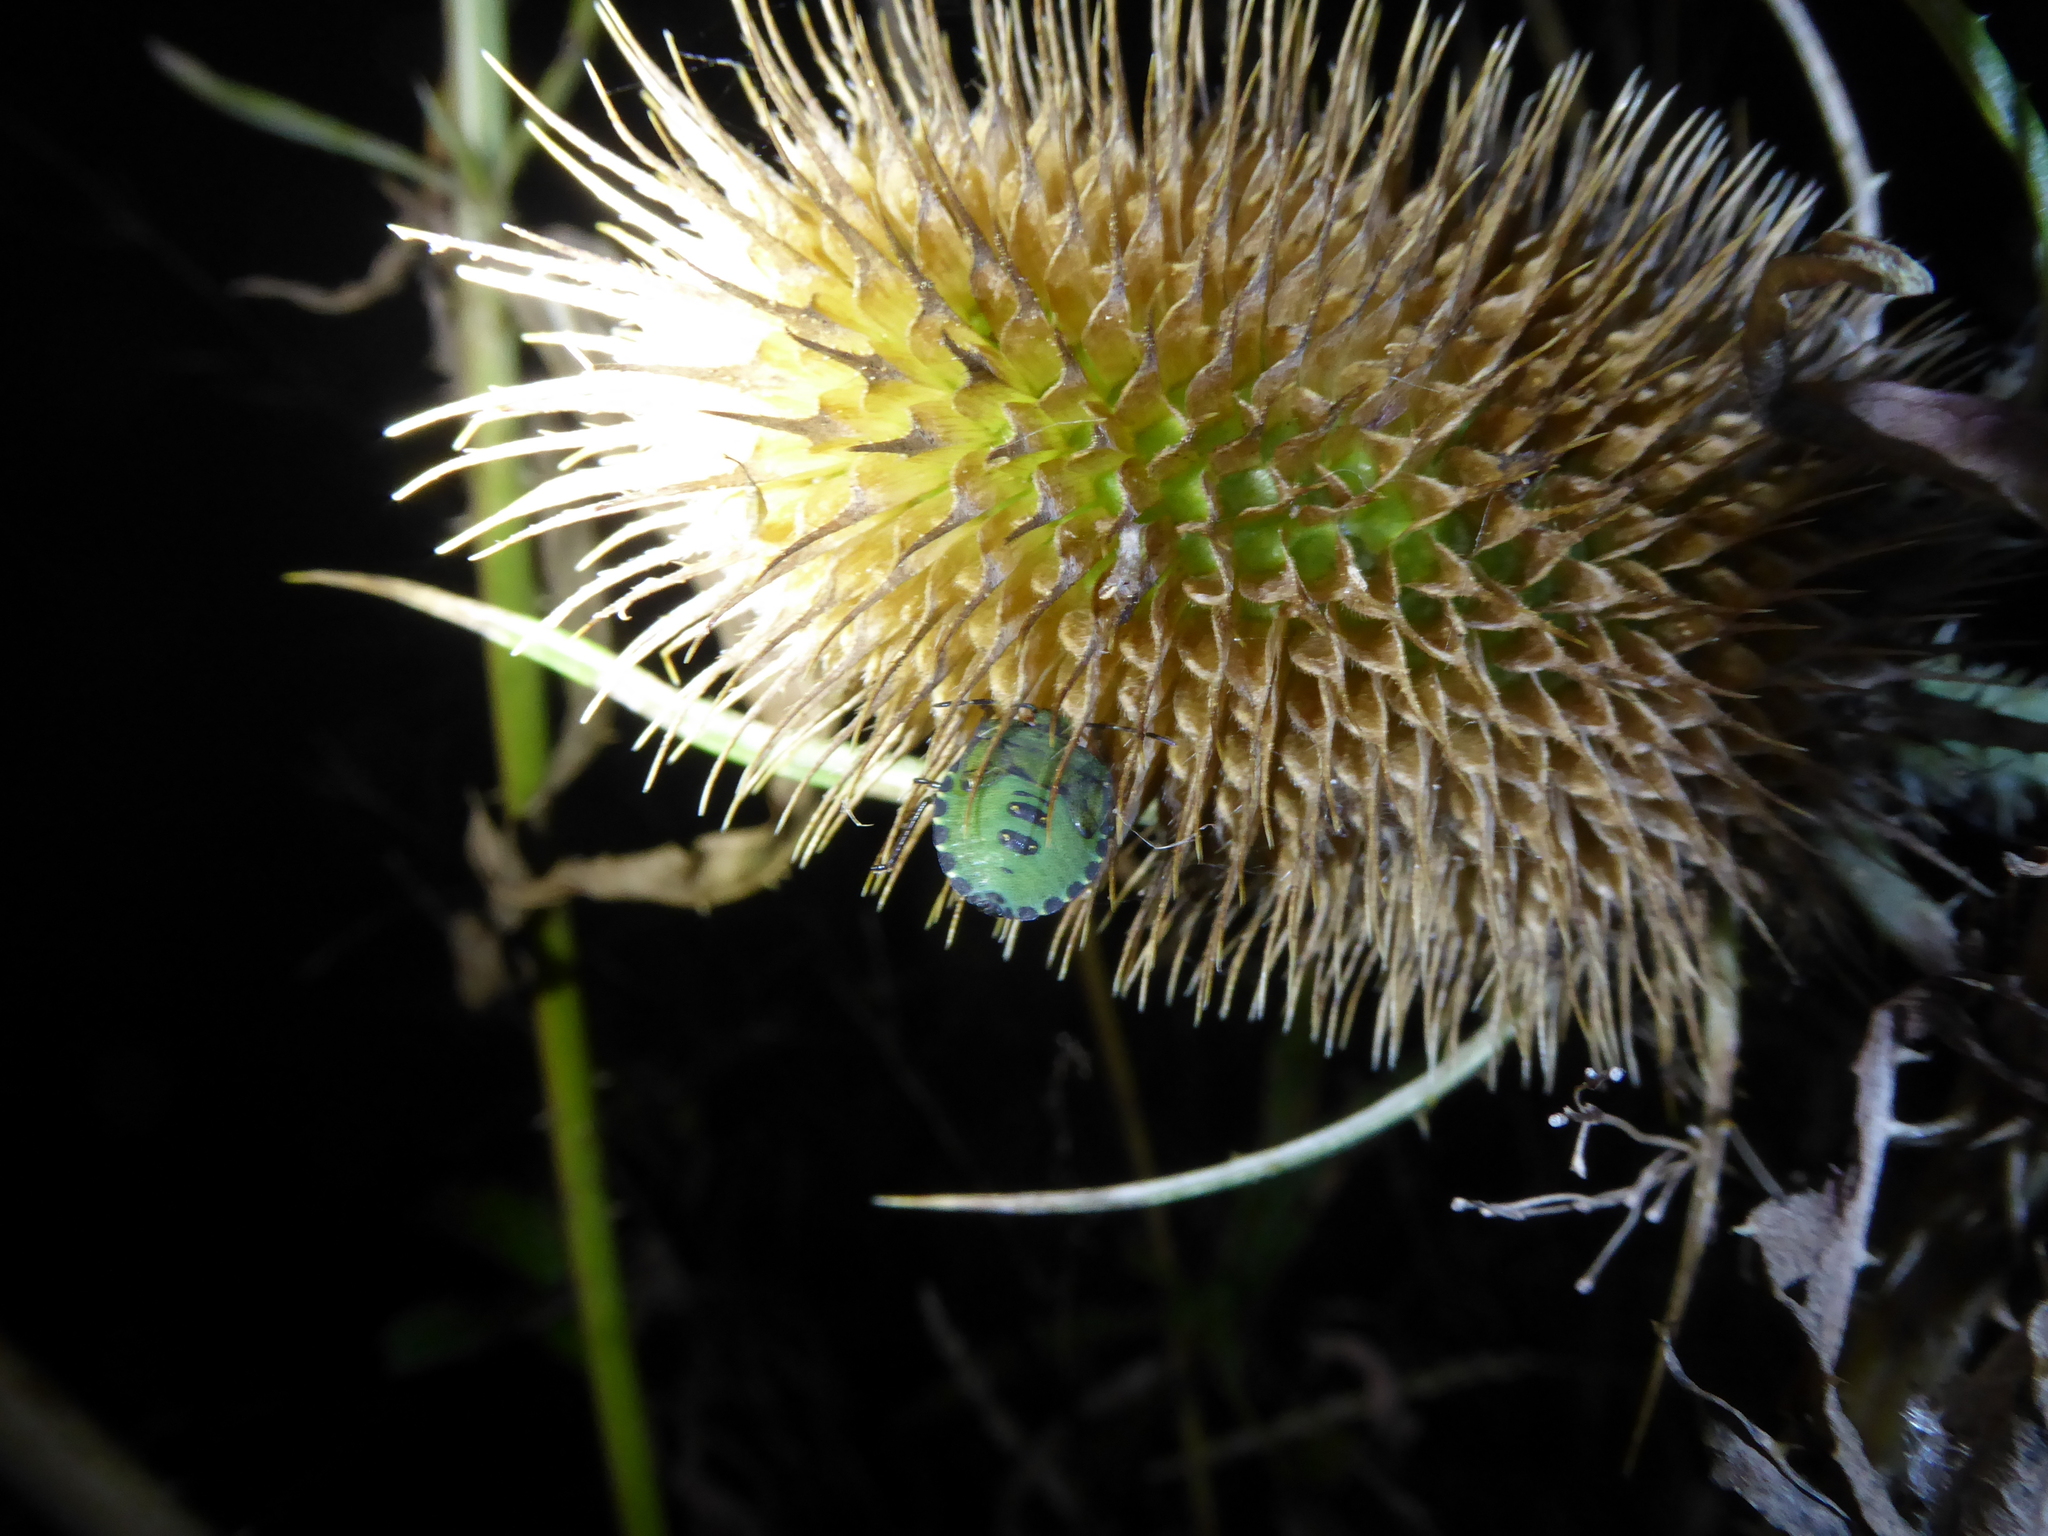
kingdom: Animalia
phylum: Arthropoda
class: Insecta
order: Hemiptera
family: Pentatomidae
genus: Palomena
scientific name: Palomena prasina
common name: Green shieldbug
